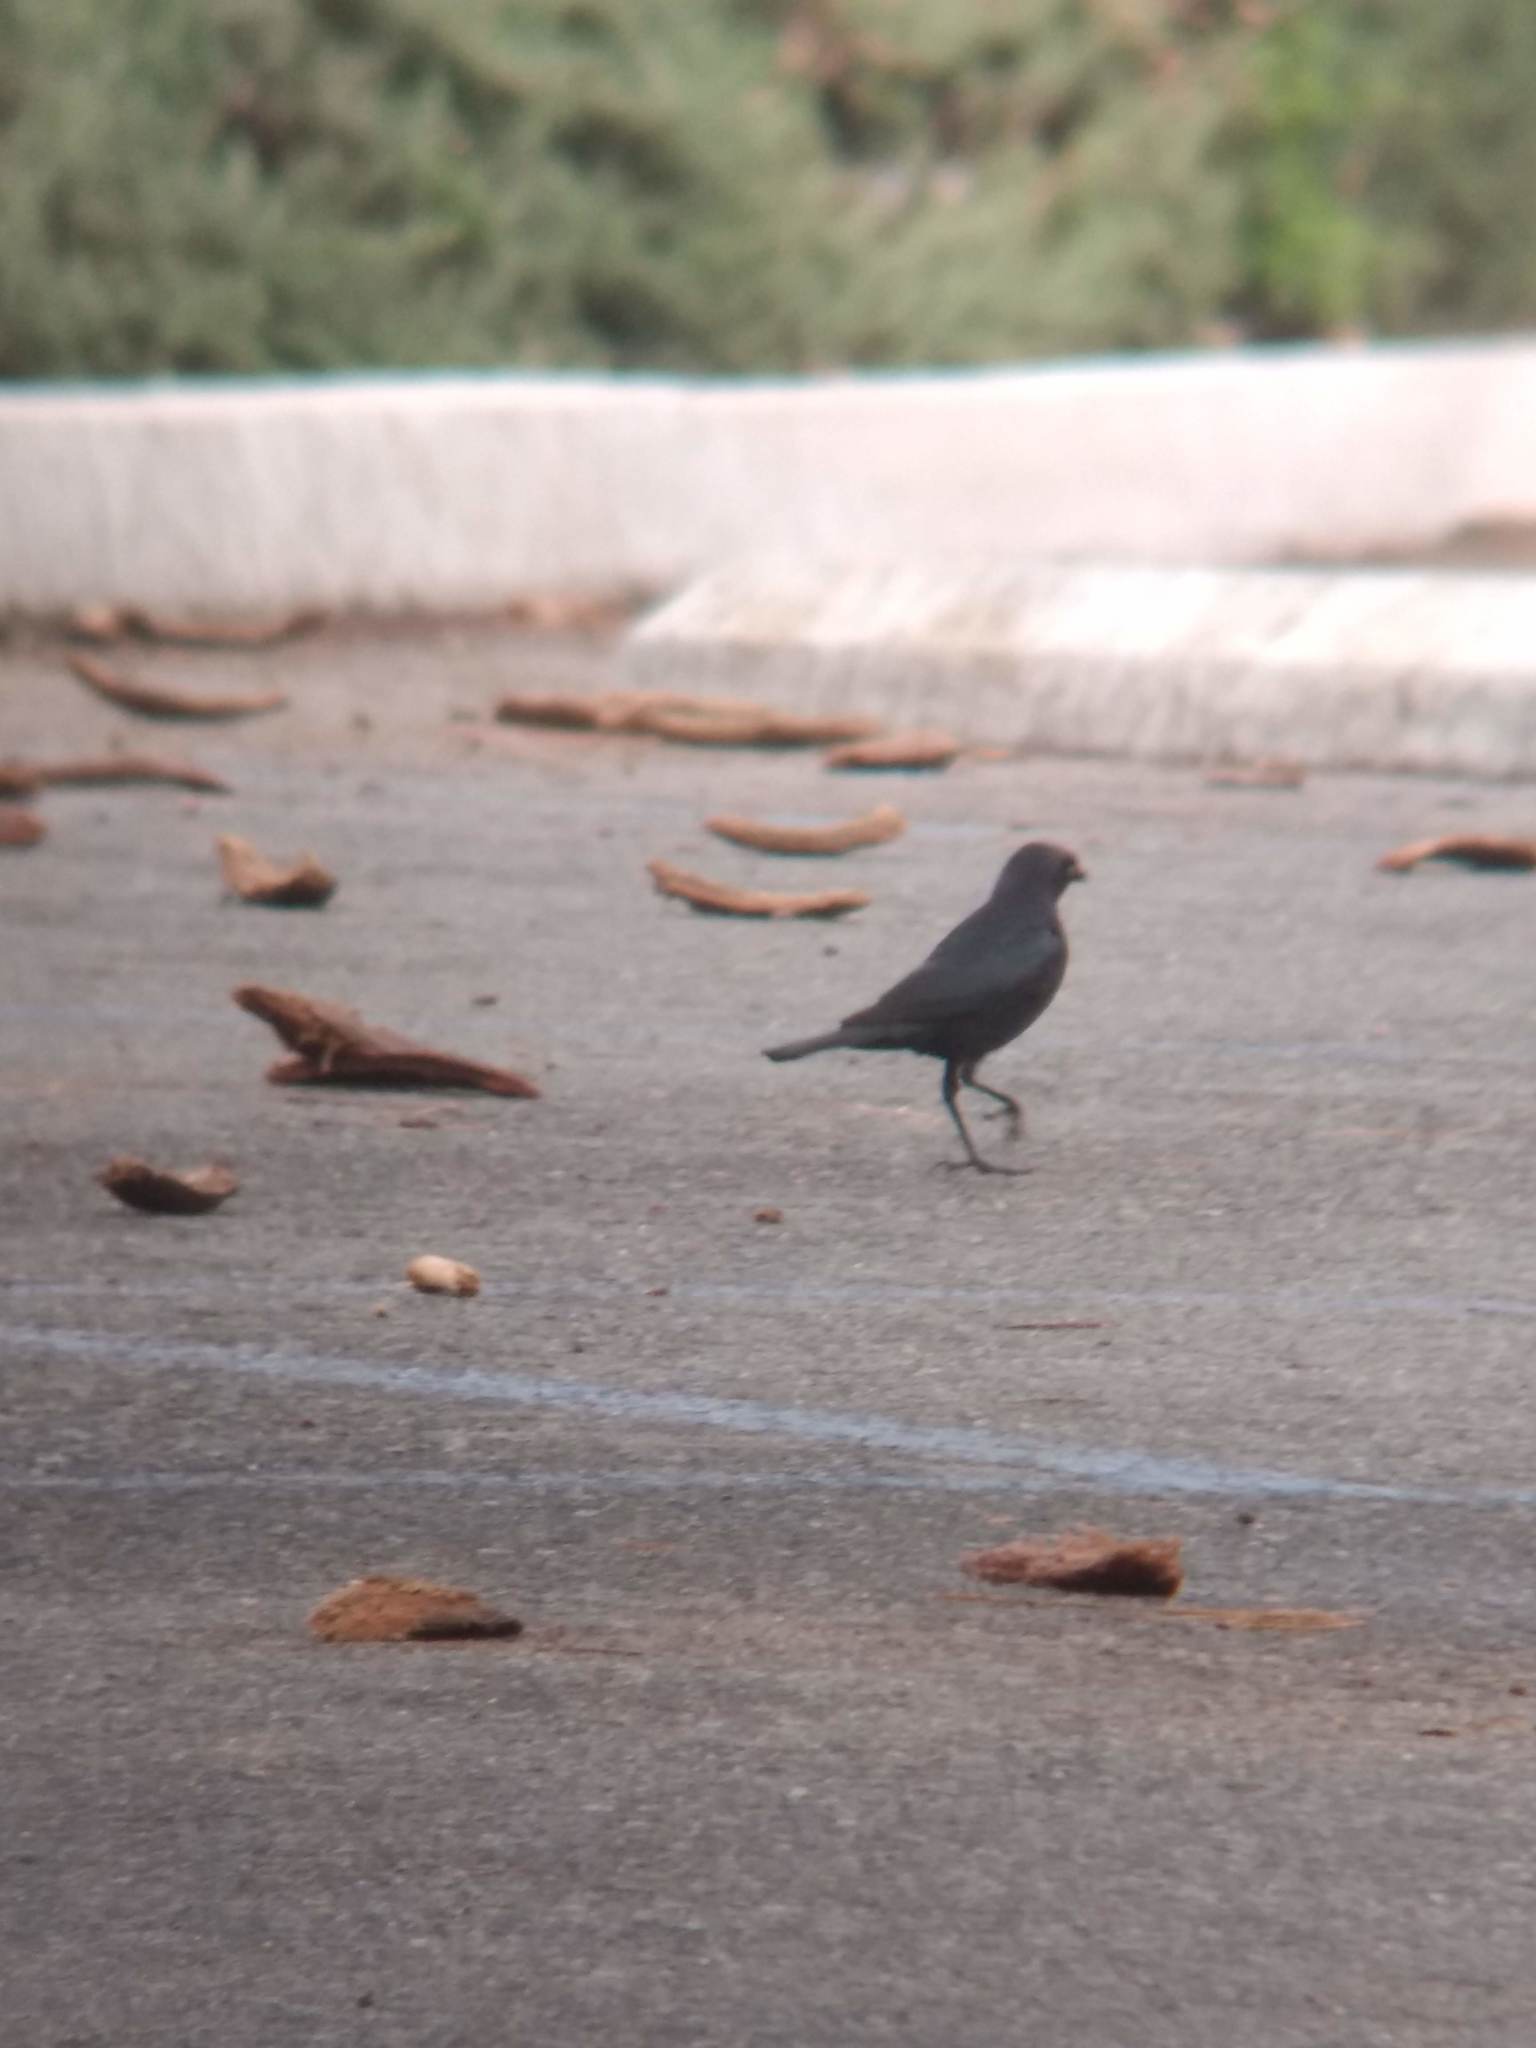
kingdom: Animalia
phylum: Chordata
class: Aves
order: Passeriformes
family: Icteridae
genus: Euphagus
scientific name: Euphagus cyanocephalus
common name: Brewer's blackbird
